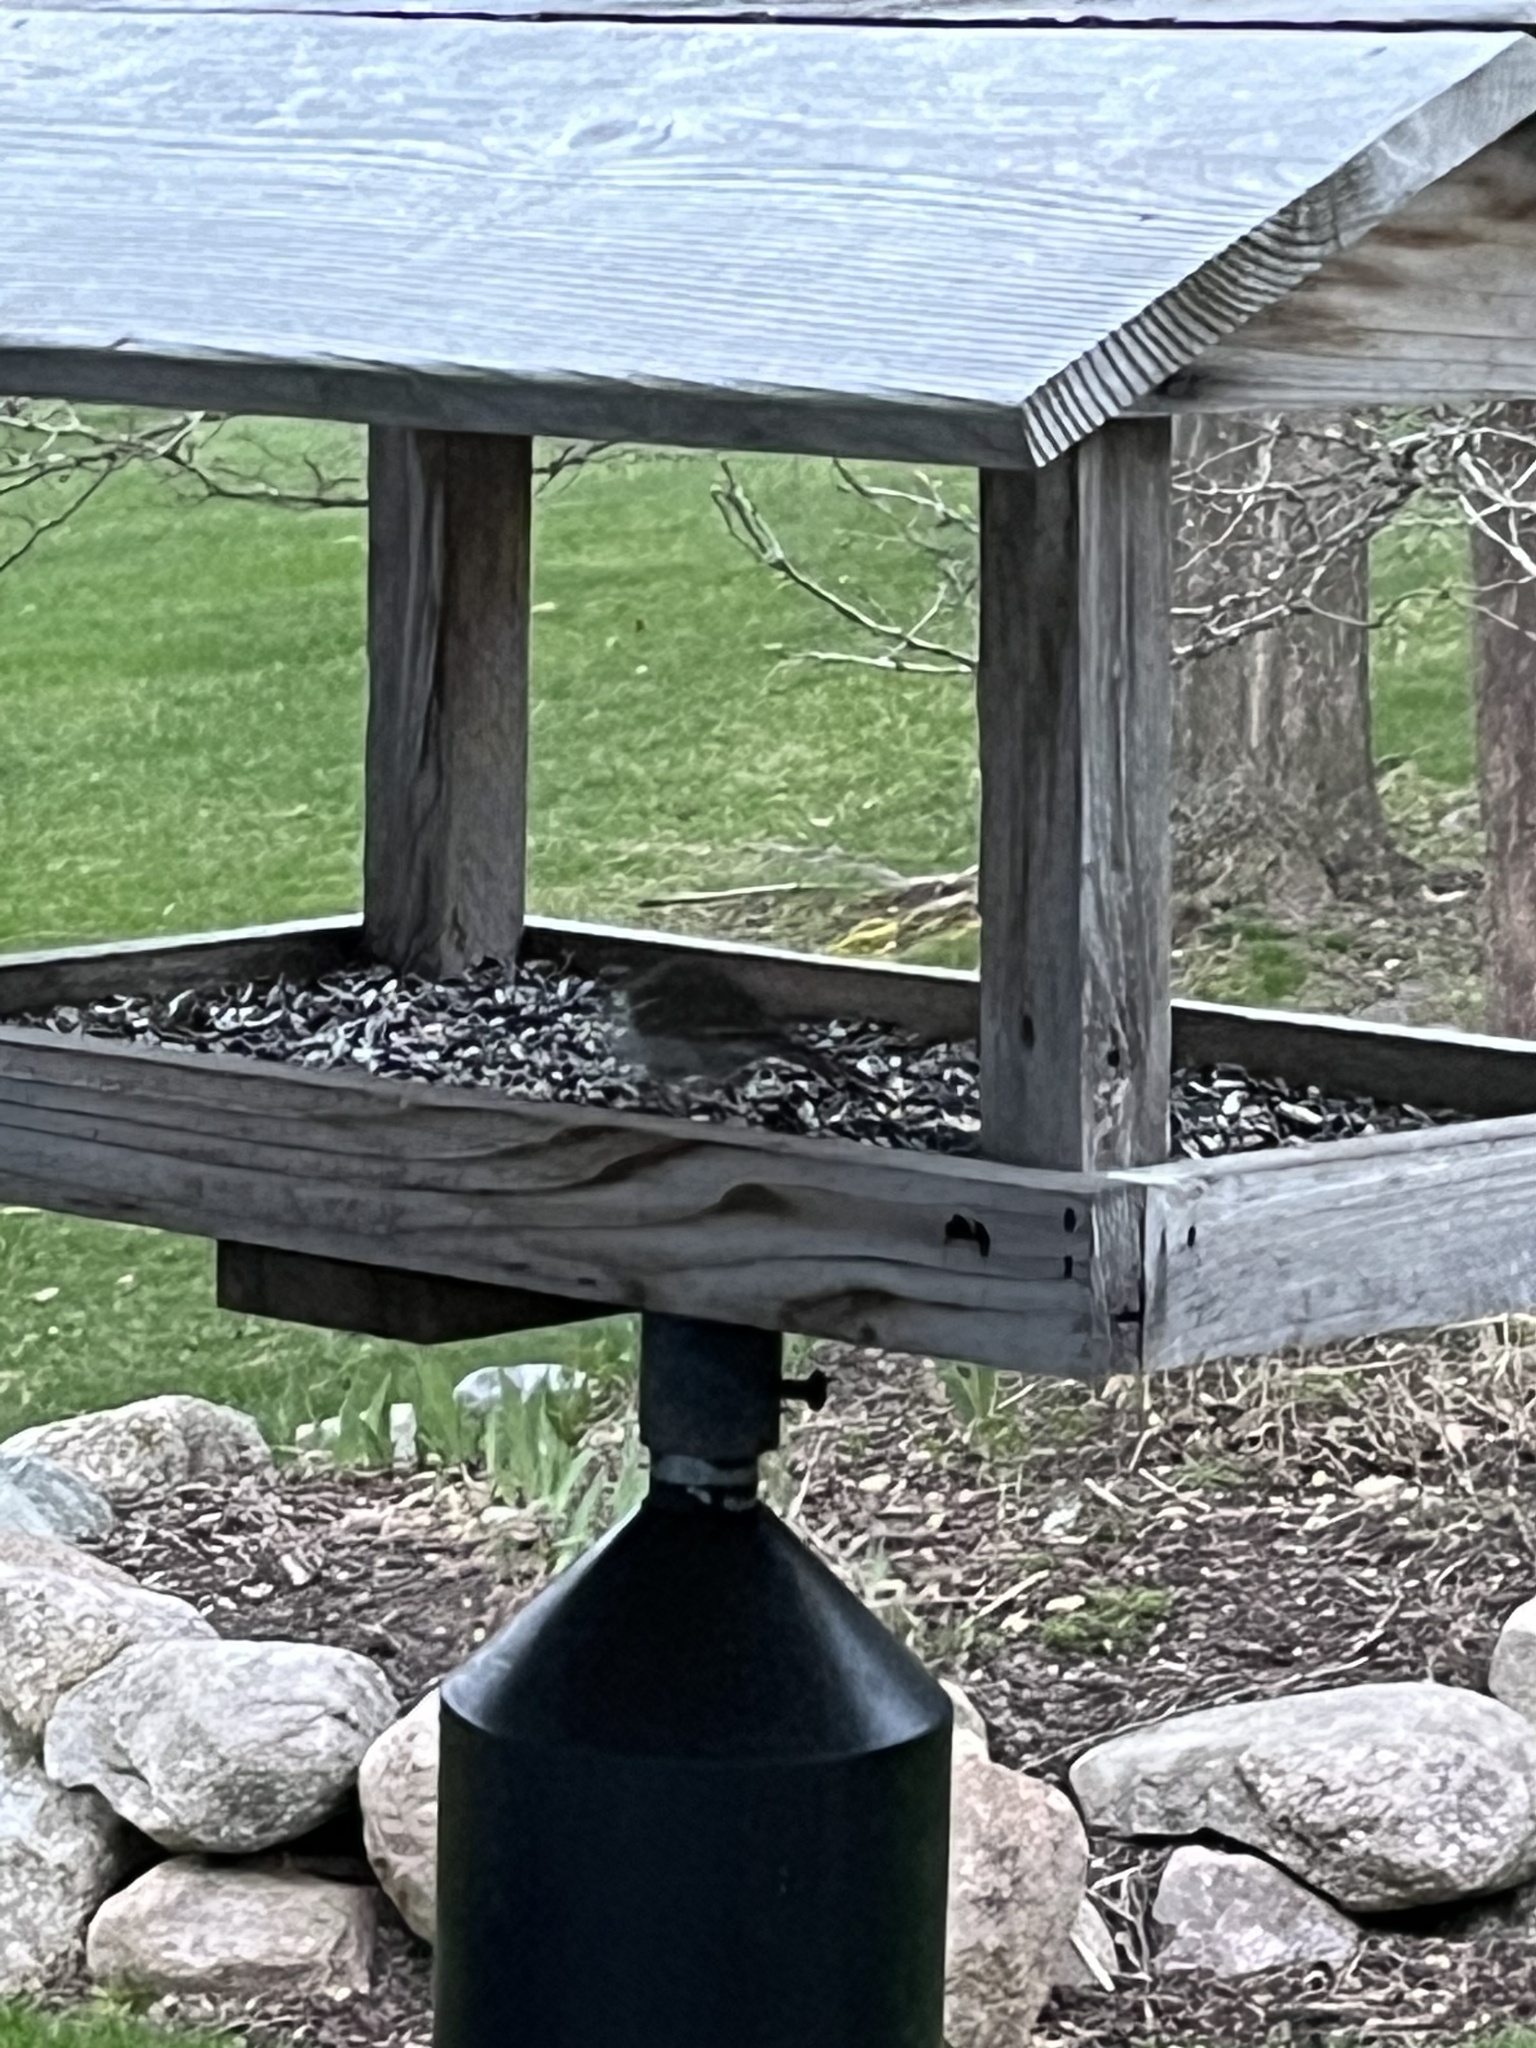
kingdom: Animalia
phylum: Chordata
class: Aves
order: Passeriformes
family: Passerellidae
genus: Spizella
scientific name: Spizella passerina
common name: Chipping sparrow
